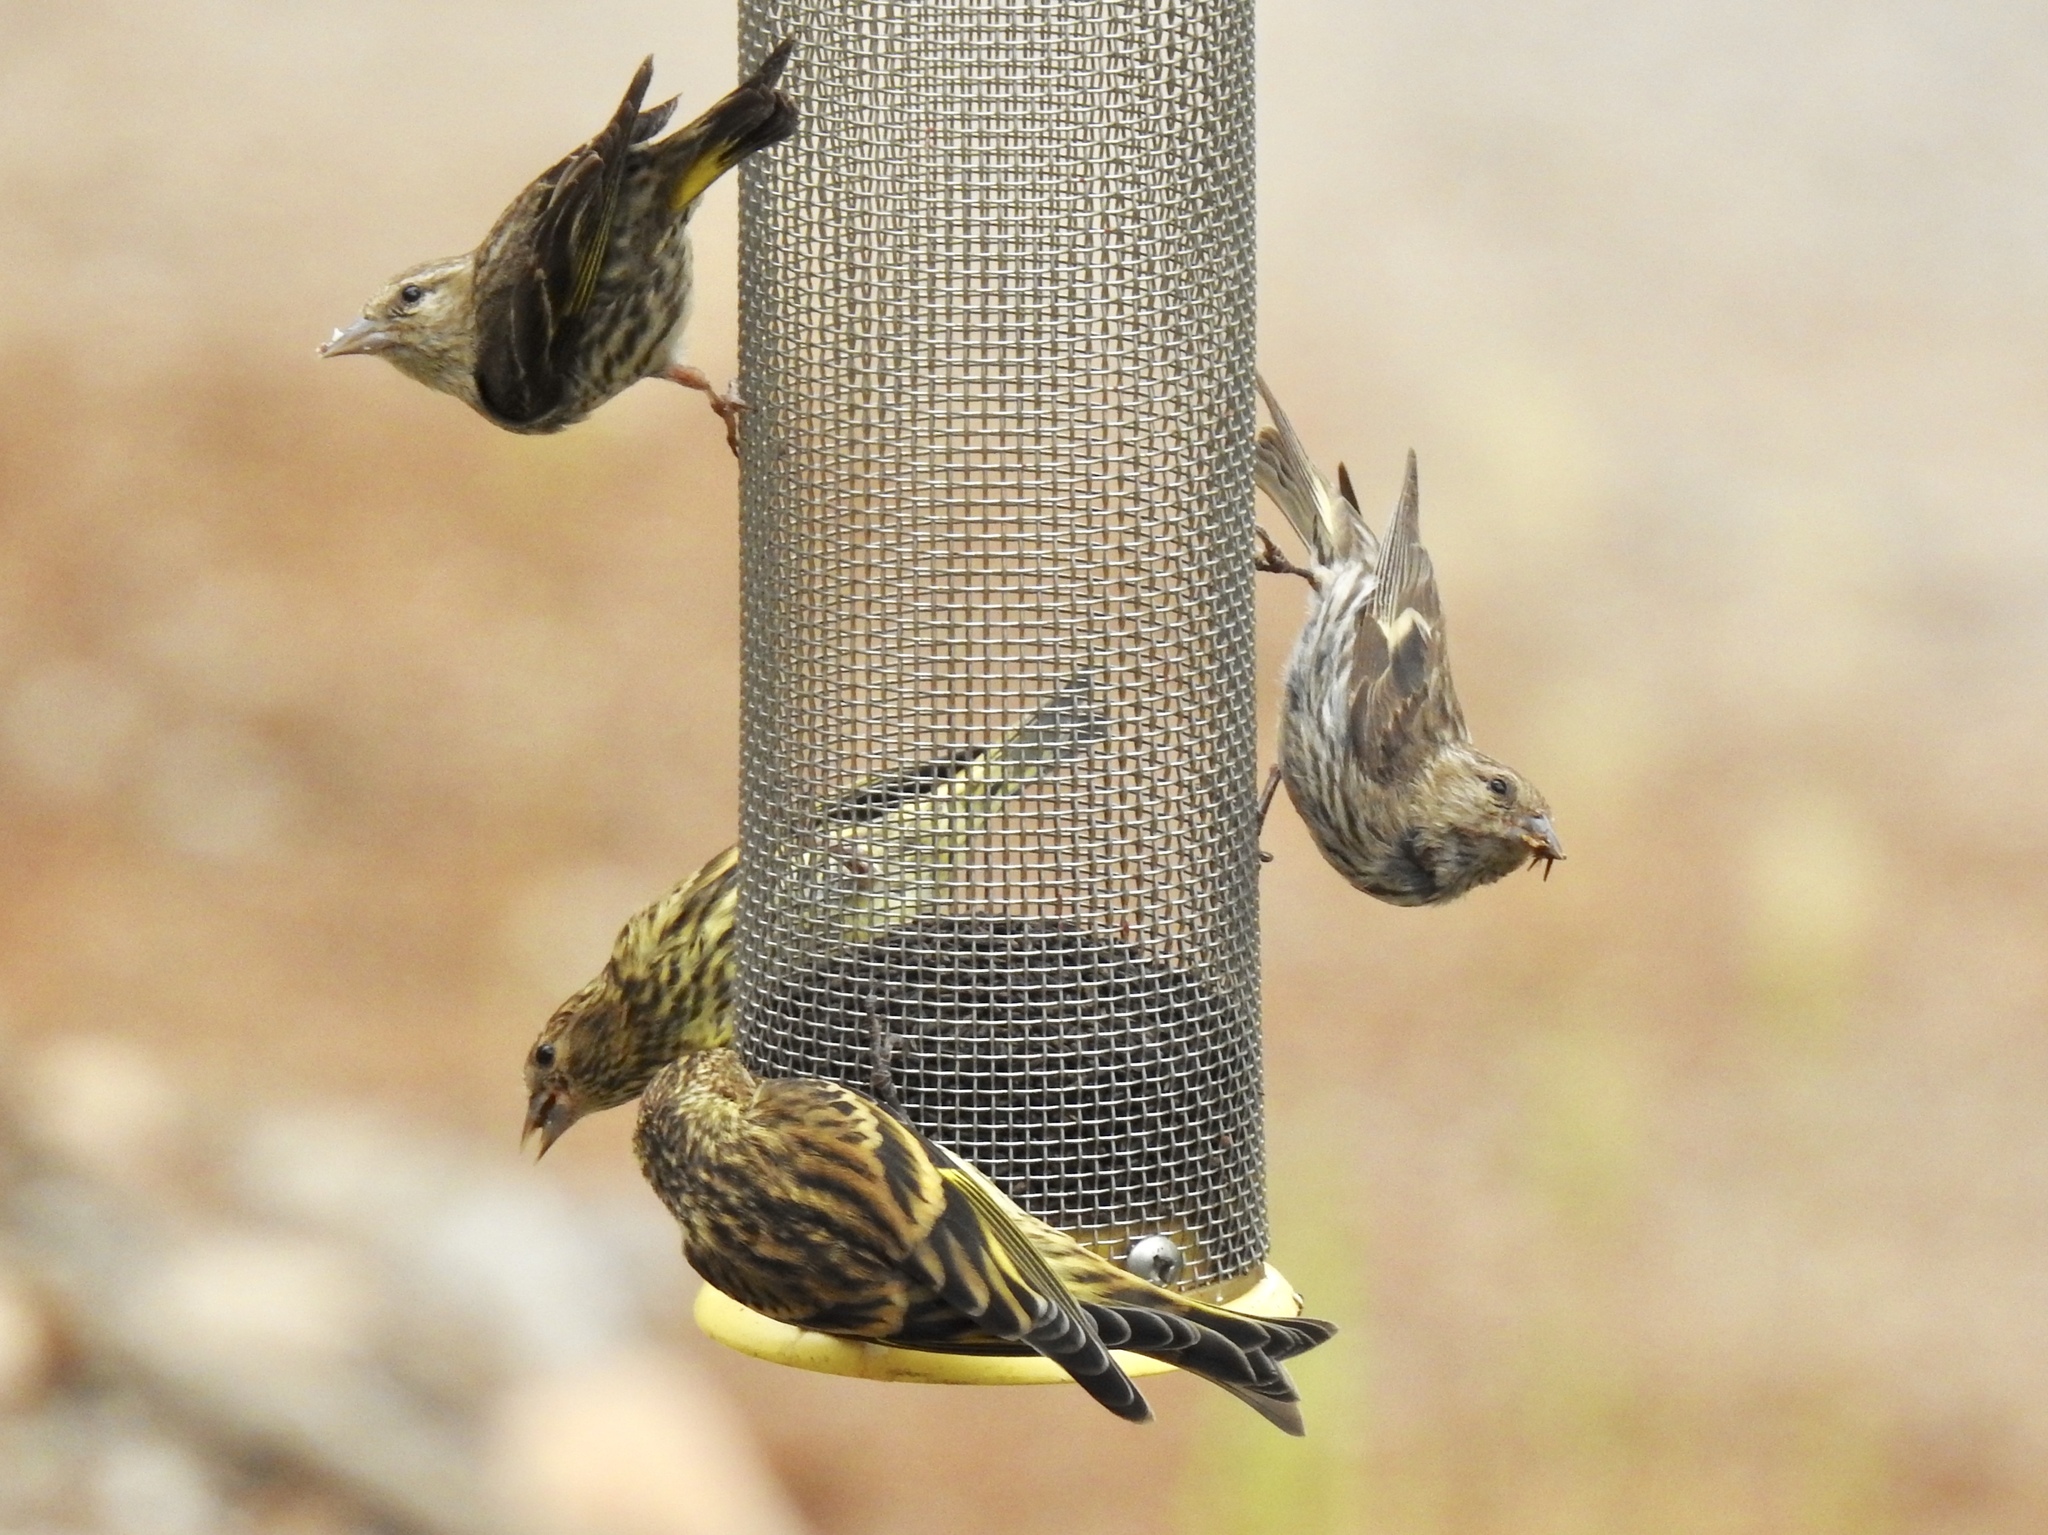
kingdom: Animalia
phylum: Chordata
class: Aves
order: Passeriformes
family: Fringillidae
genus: Spinus
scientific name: Spinus pinus
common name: Pine siskin
